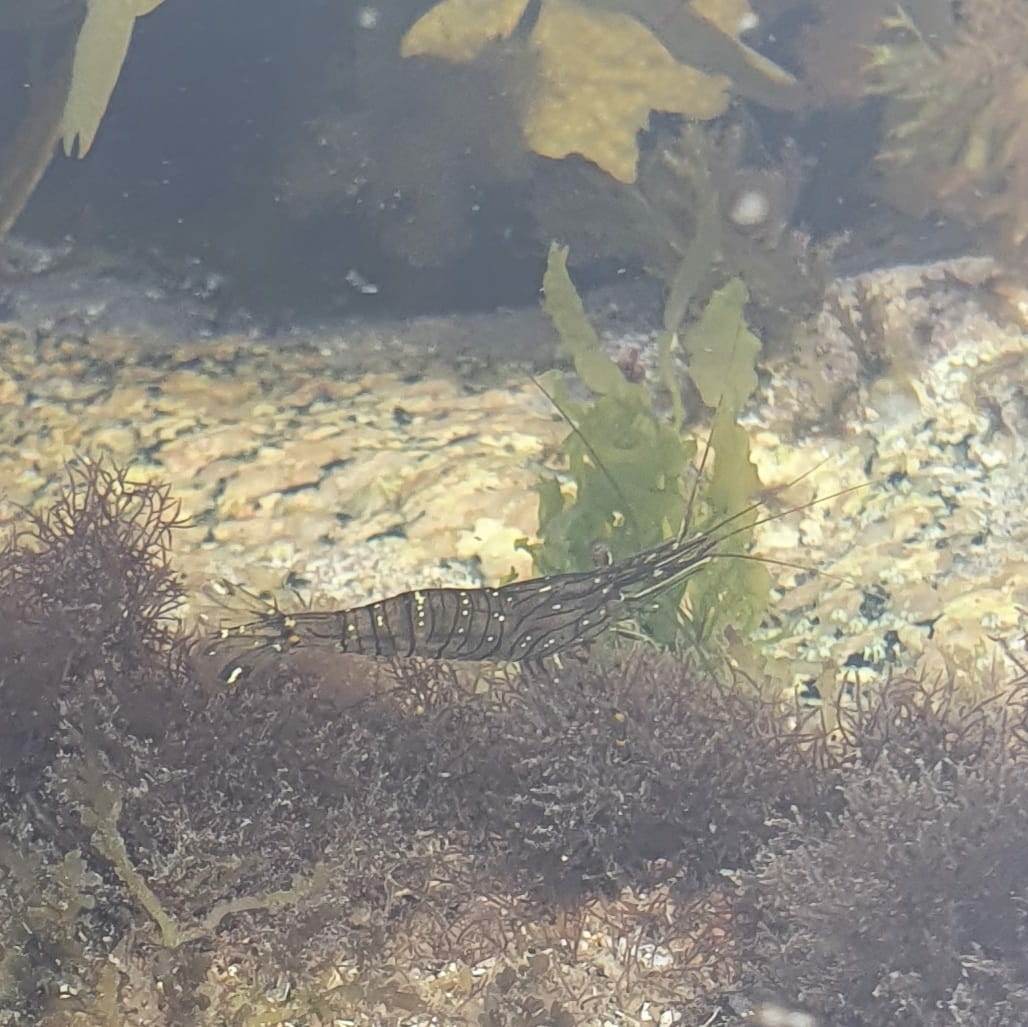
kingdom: Animalia
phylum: Arthropoda
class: Malacostraca
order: Decapoda
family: Palaemonidae
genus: Palaemon
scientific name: Palaemon elegans
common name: Grass prawm
